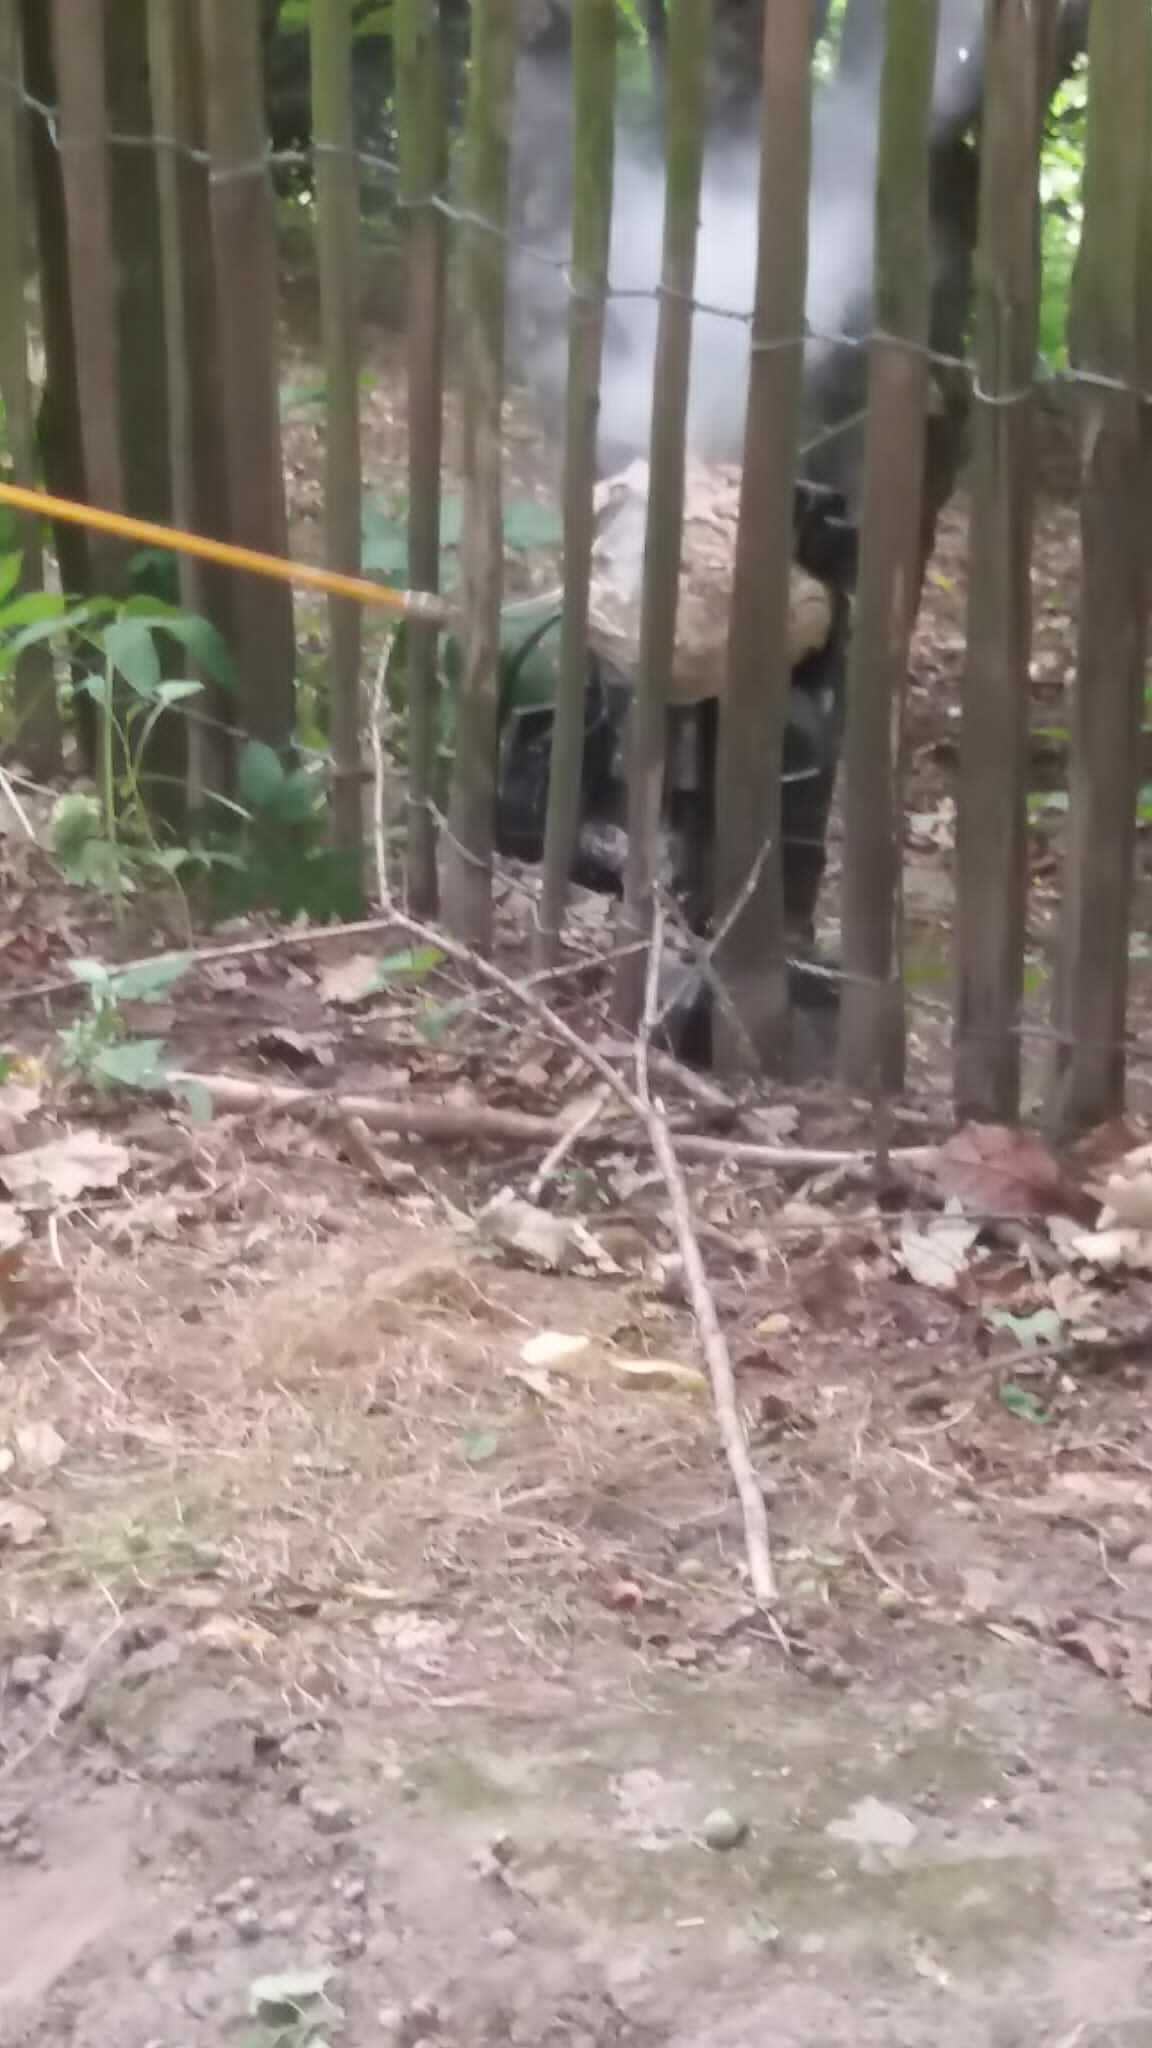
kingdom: Animalia
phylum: Arthropoda
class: Insecta
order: Hymenoptera
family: Vespidae
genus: Vespa
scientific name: Vespa velutina
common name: Asian hornet
